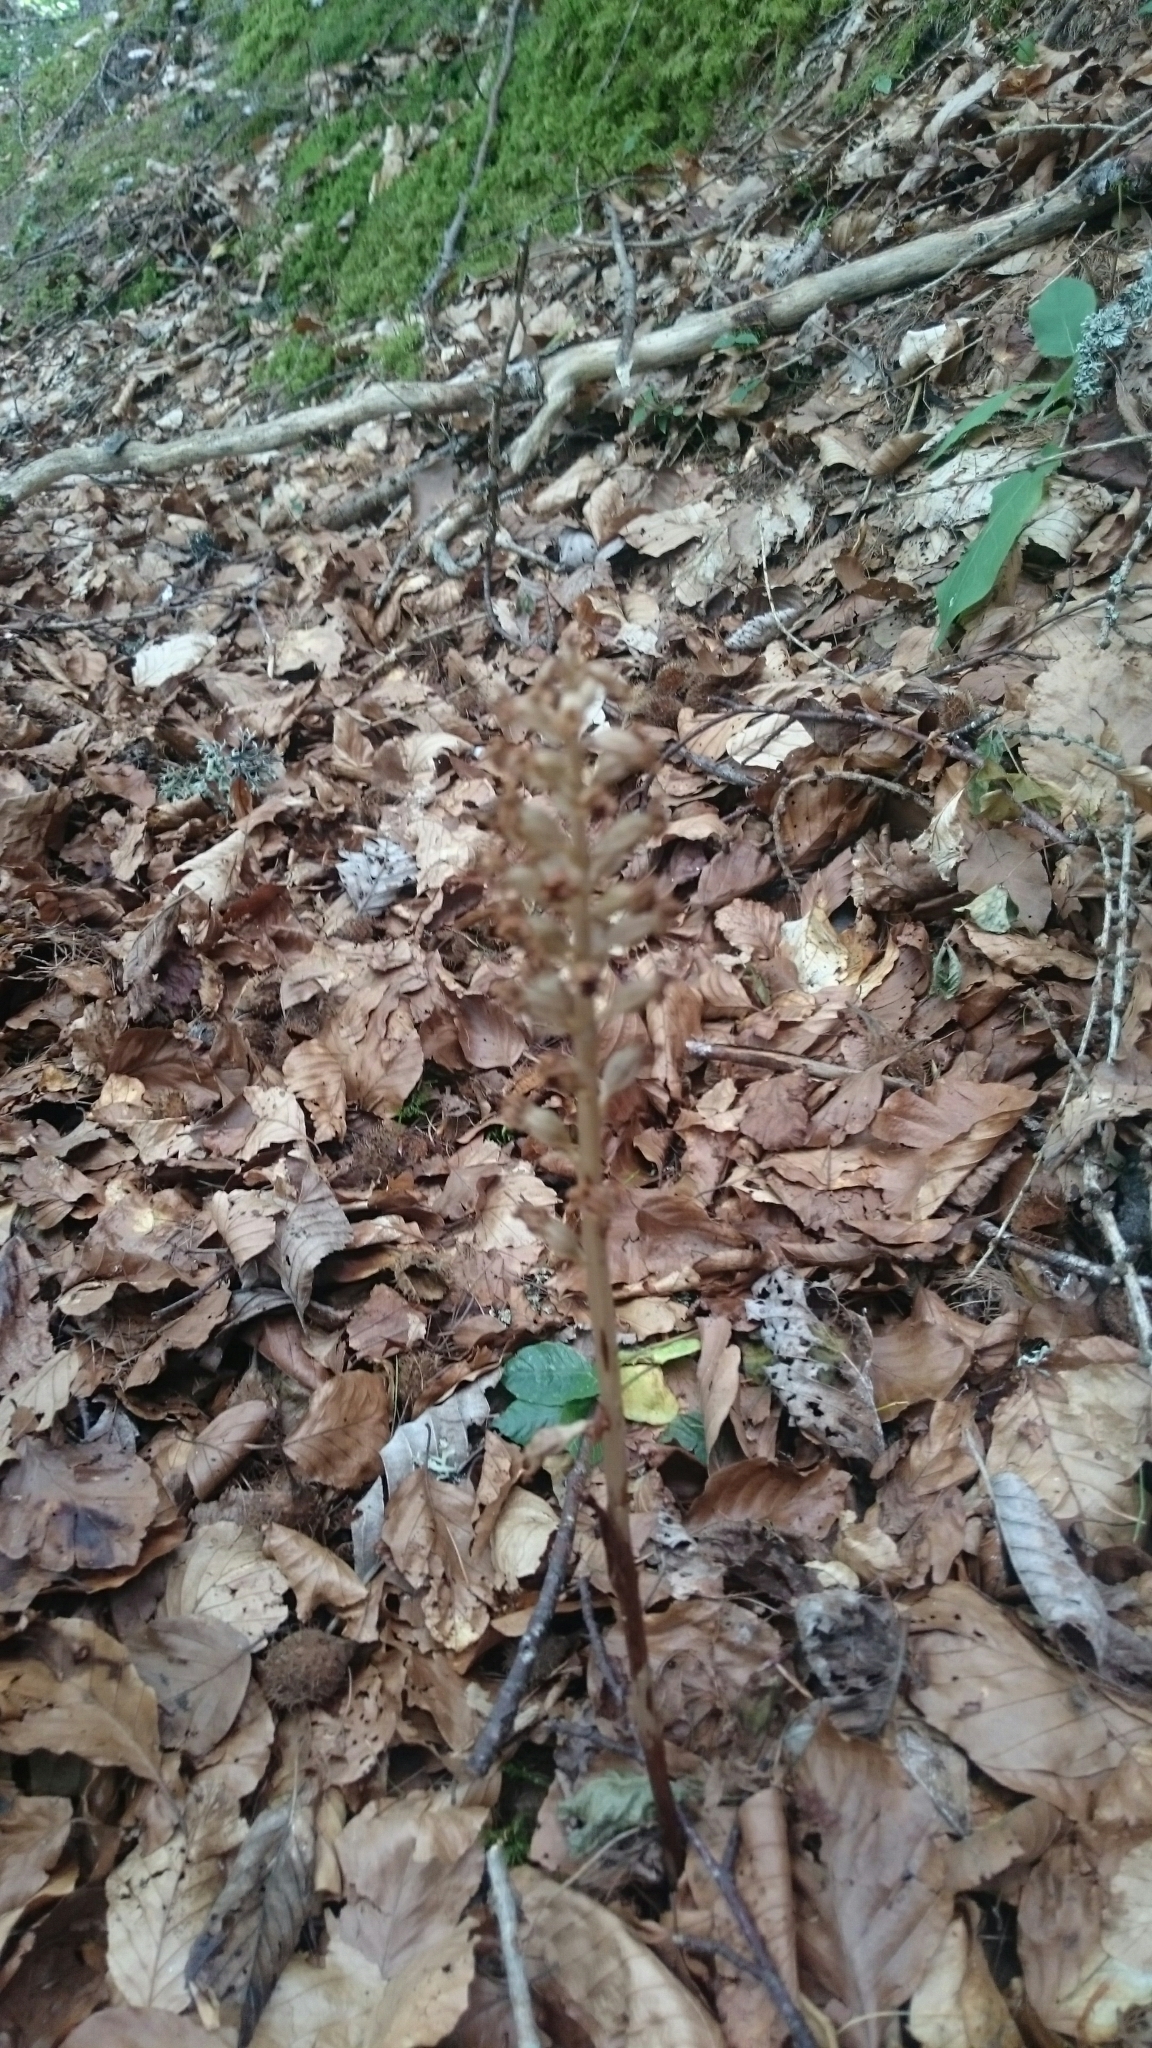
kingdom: Plantae
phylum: Tracheophyta
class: Liliopsida
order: Asparagales
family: Orchidaceae
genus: Neottia
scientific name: Neottia nidus-avis
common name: Bird's-nest orchid
